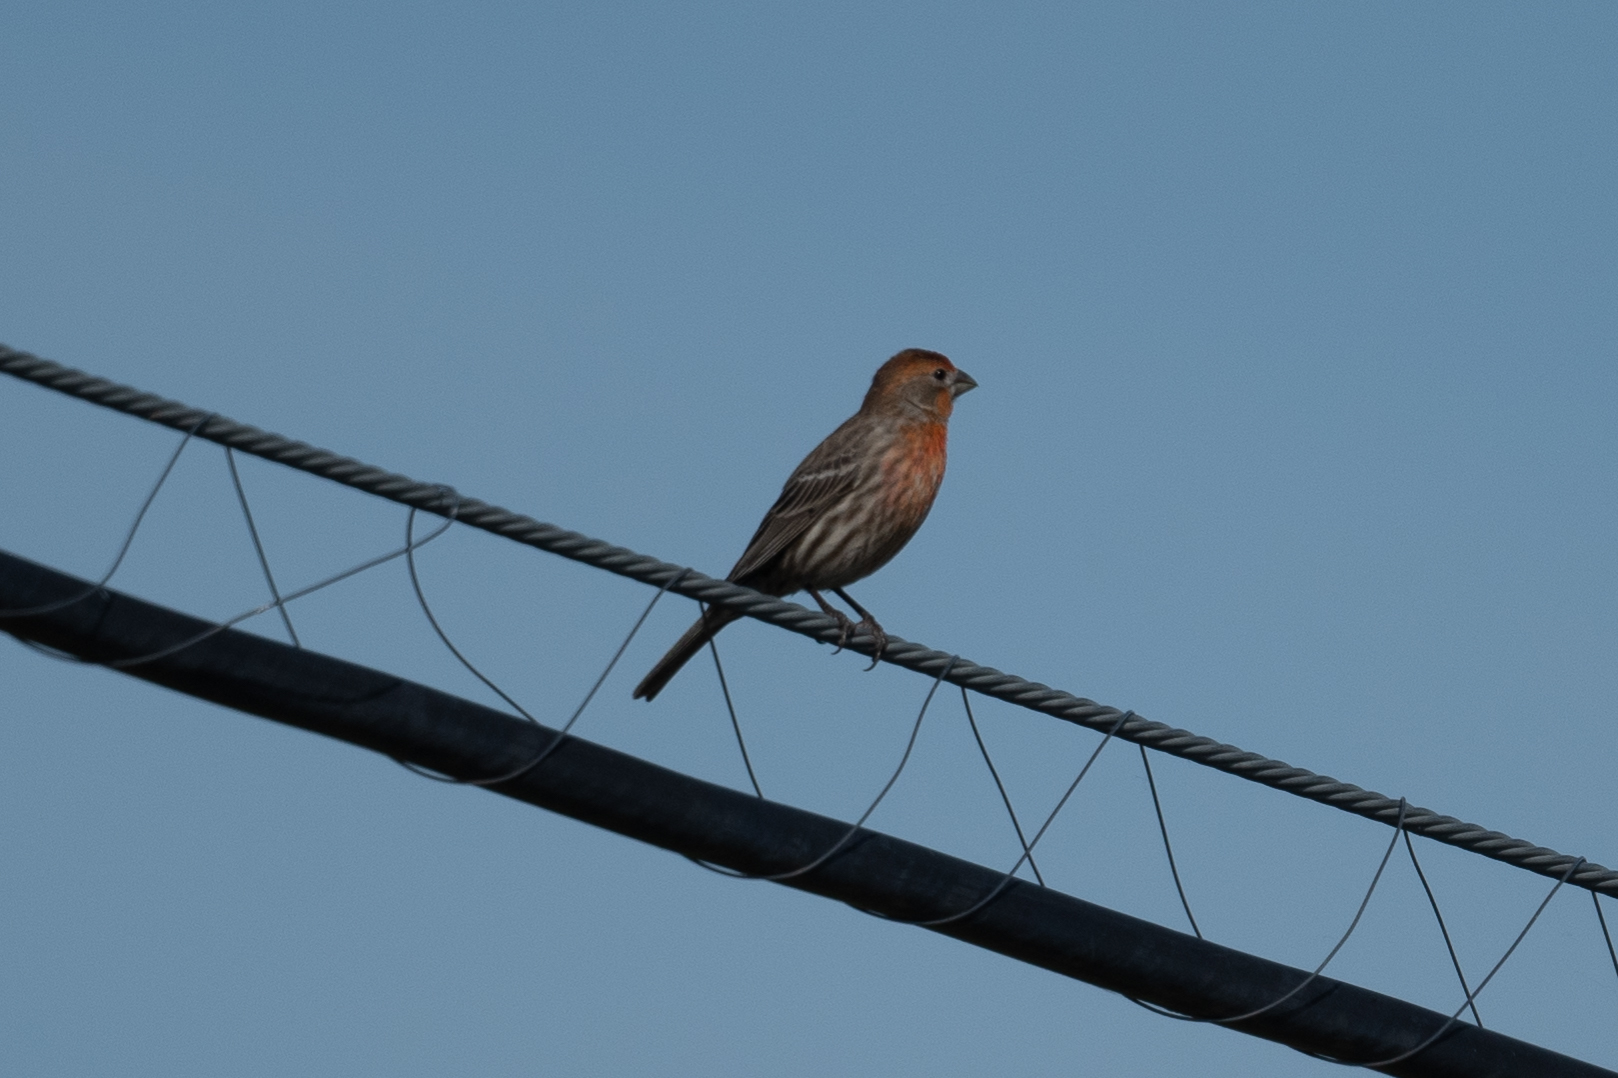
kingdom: Animalia
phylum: Chordata
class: Aves
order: Passeriformes
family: Fringillidae
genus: Haemorhous
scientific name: Haemorhous mexicanus
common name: House finch
